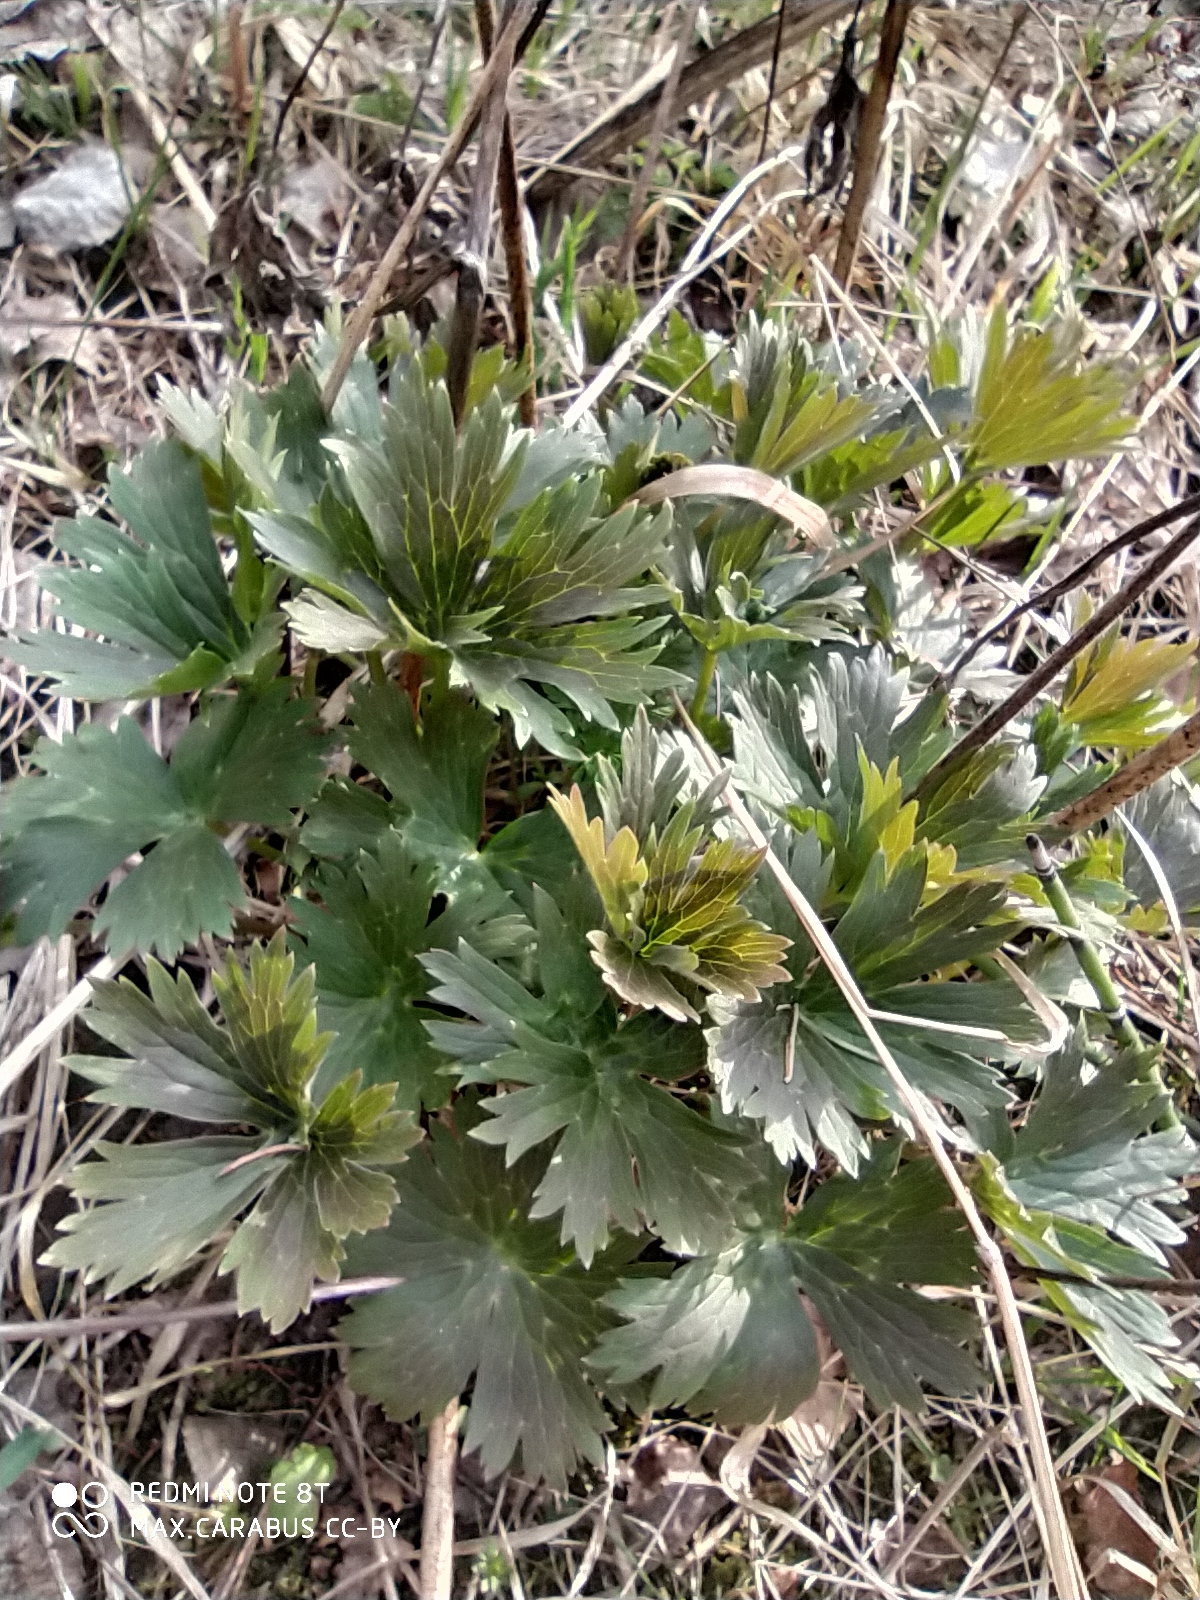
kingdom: Plantae
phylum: Tracheophyta
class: Magnoliopsida
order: Ranunculales
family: Ranunculaceae
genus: Trollius
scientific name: Trollius europaeus
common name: European globeflower
